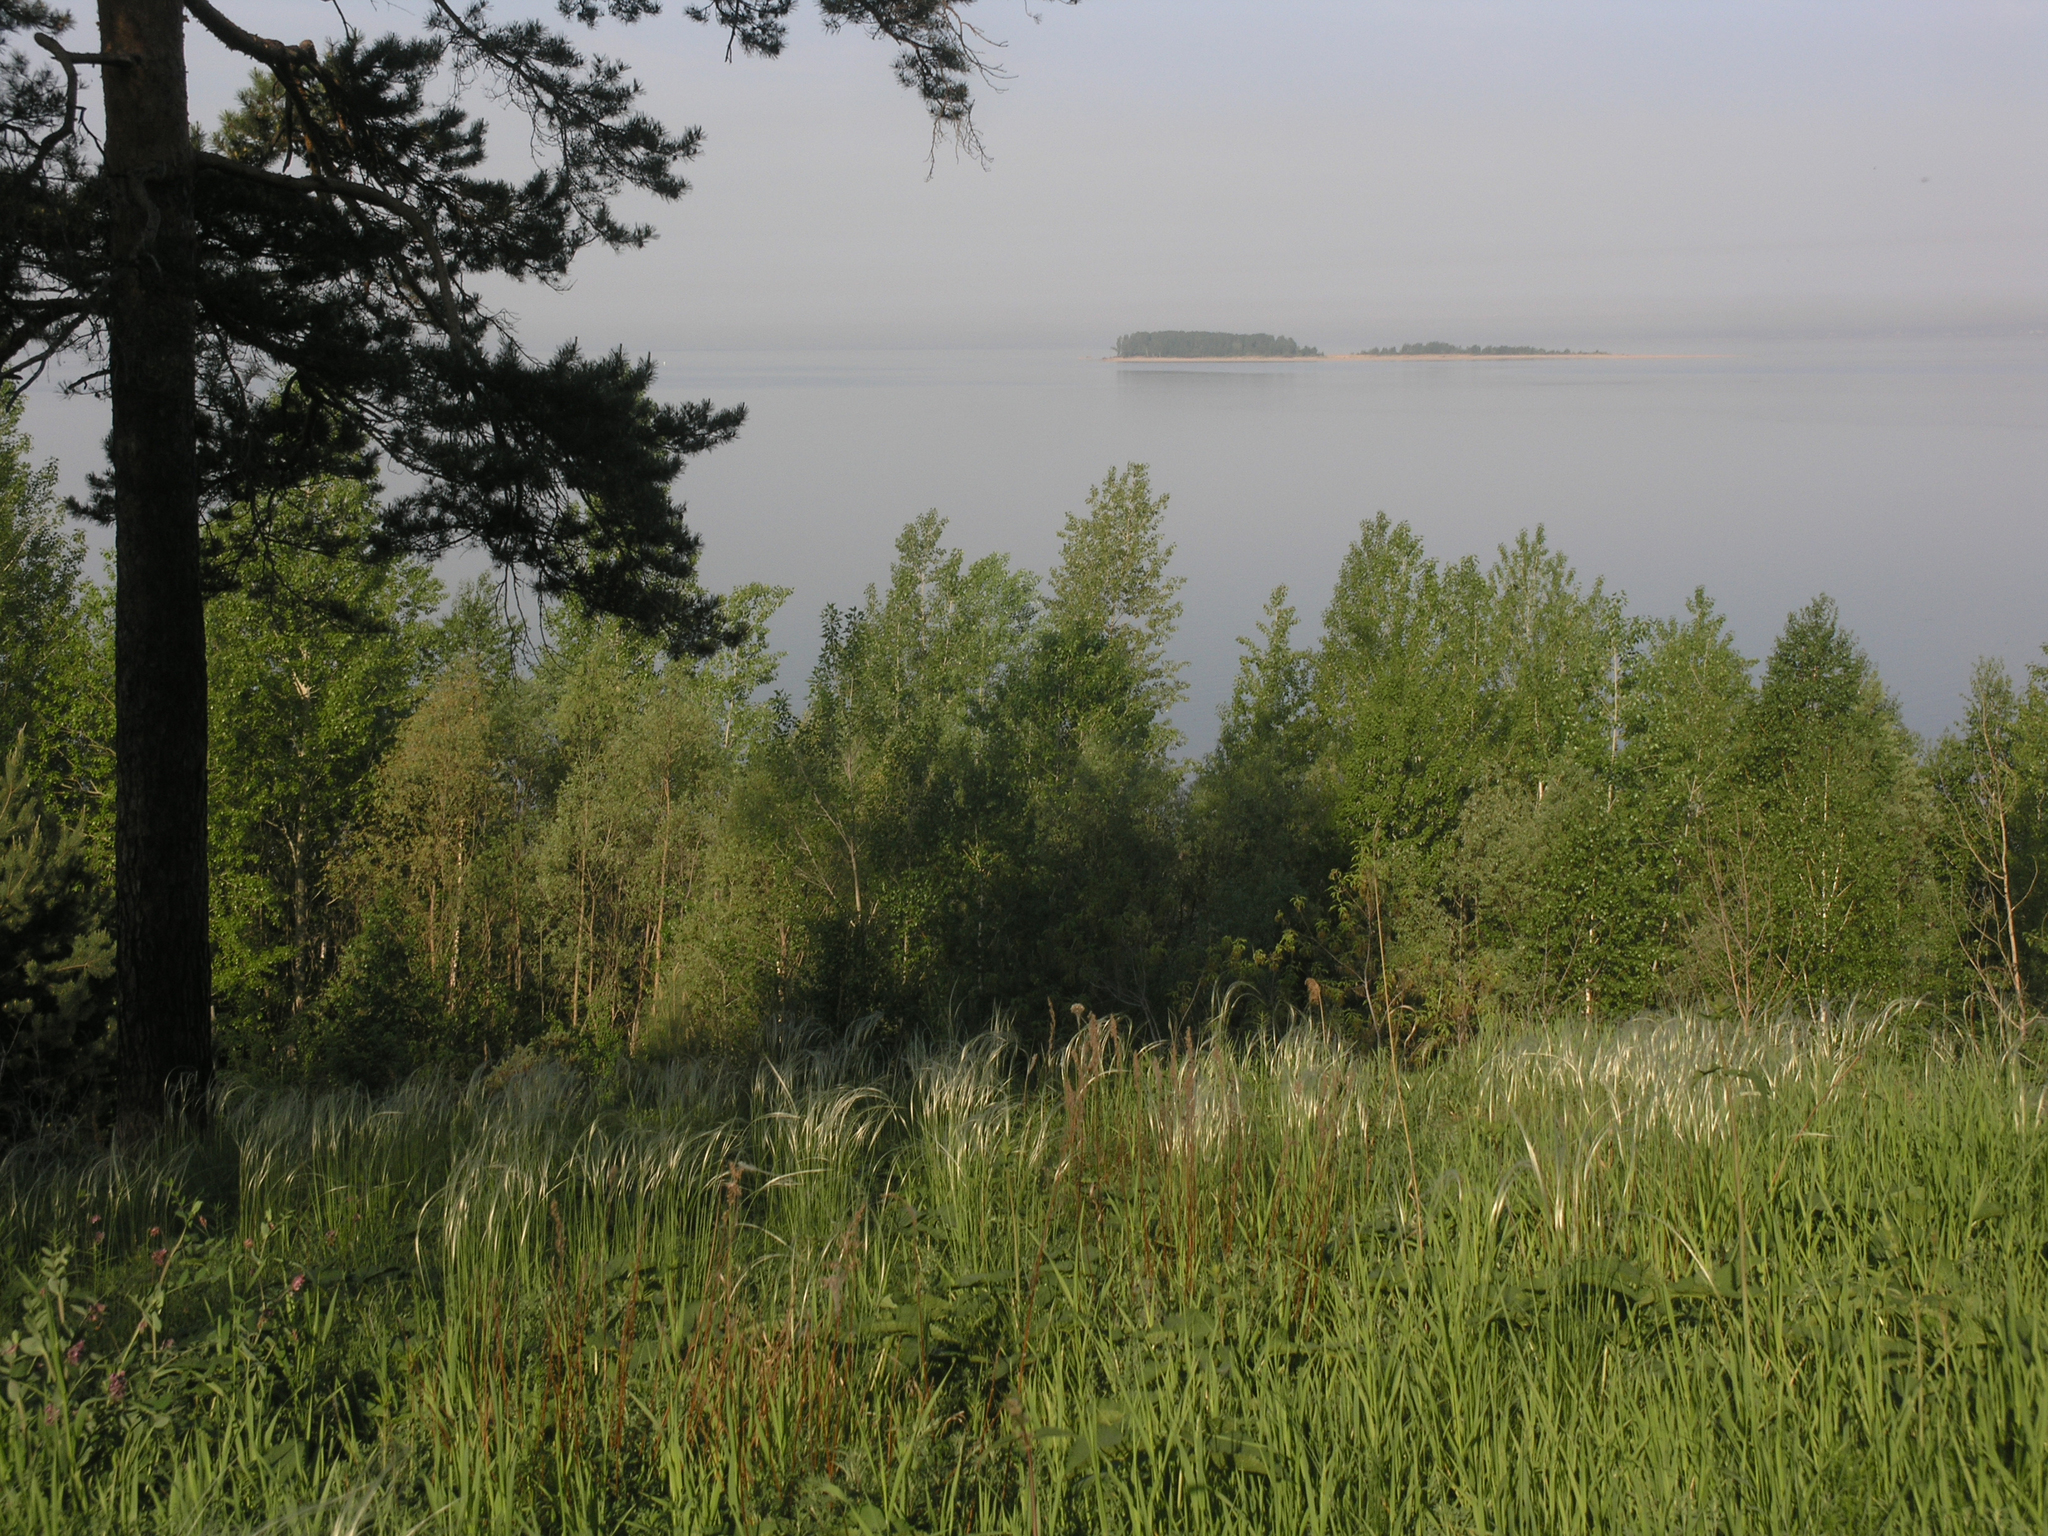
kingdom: Plantae
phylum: Tracheophyta
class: Liliopsida
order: Poales
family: Poaceae
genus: Stipa
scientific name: Stipa pennata
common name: European feather grass
